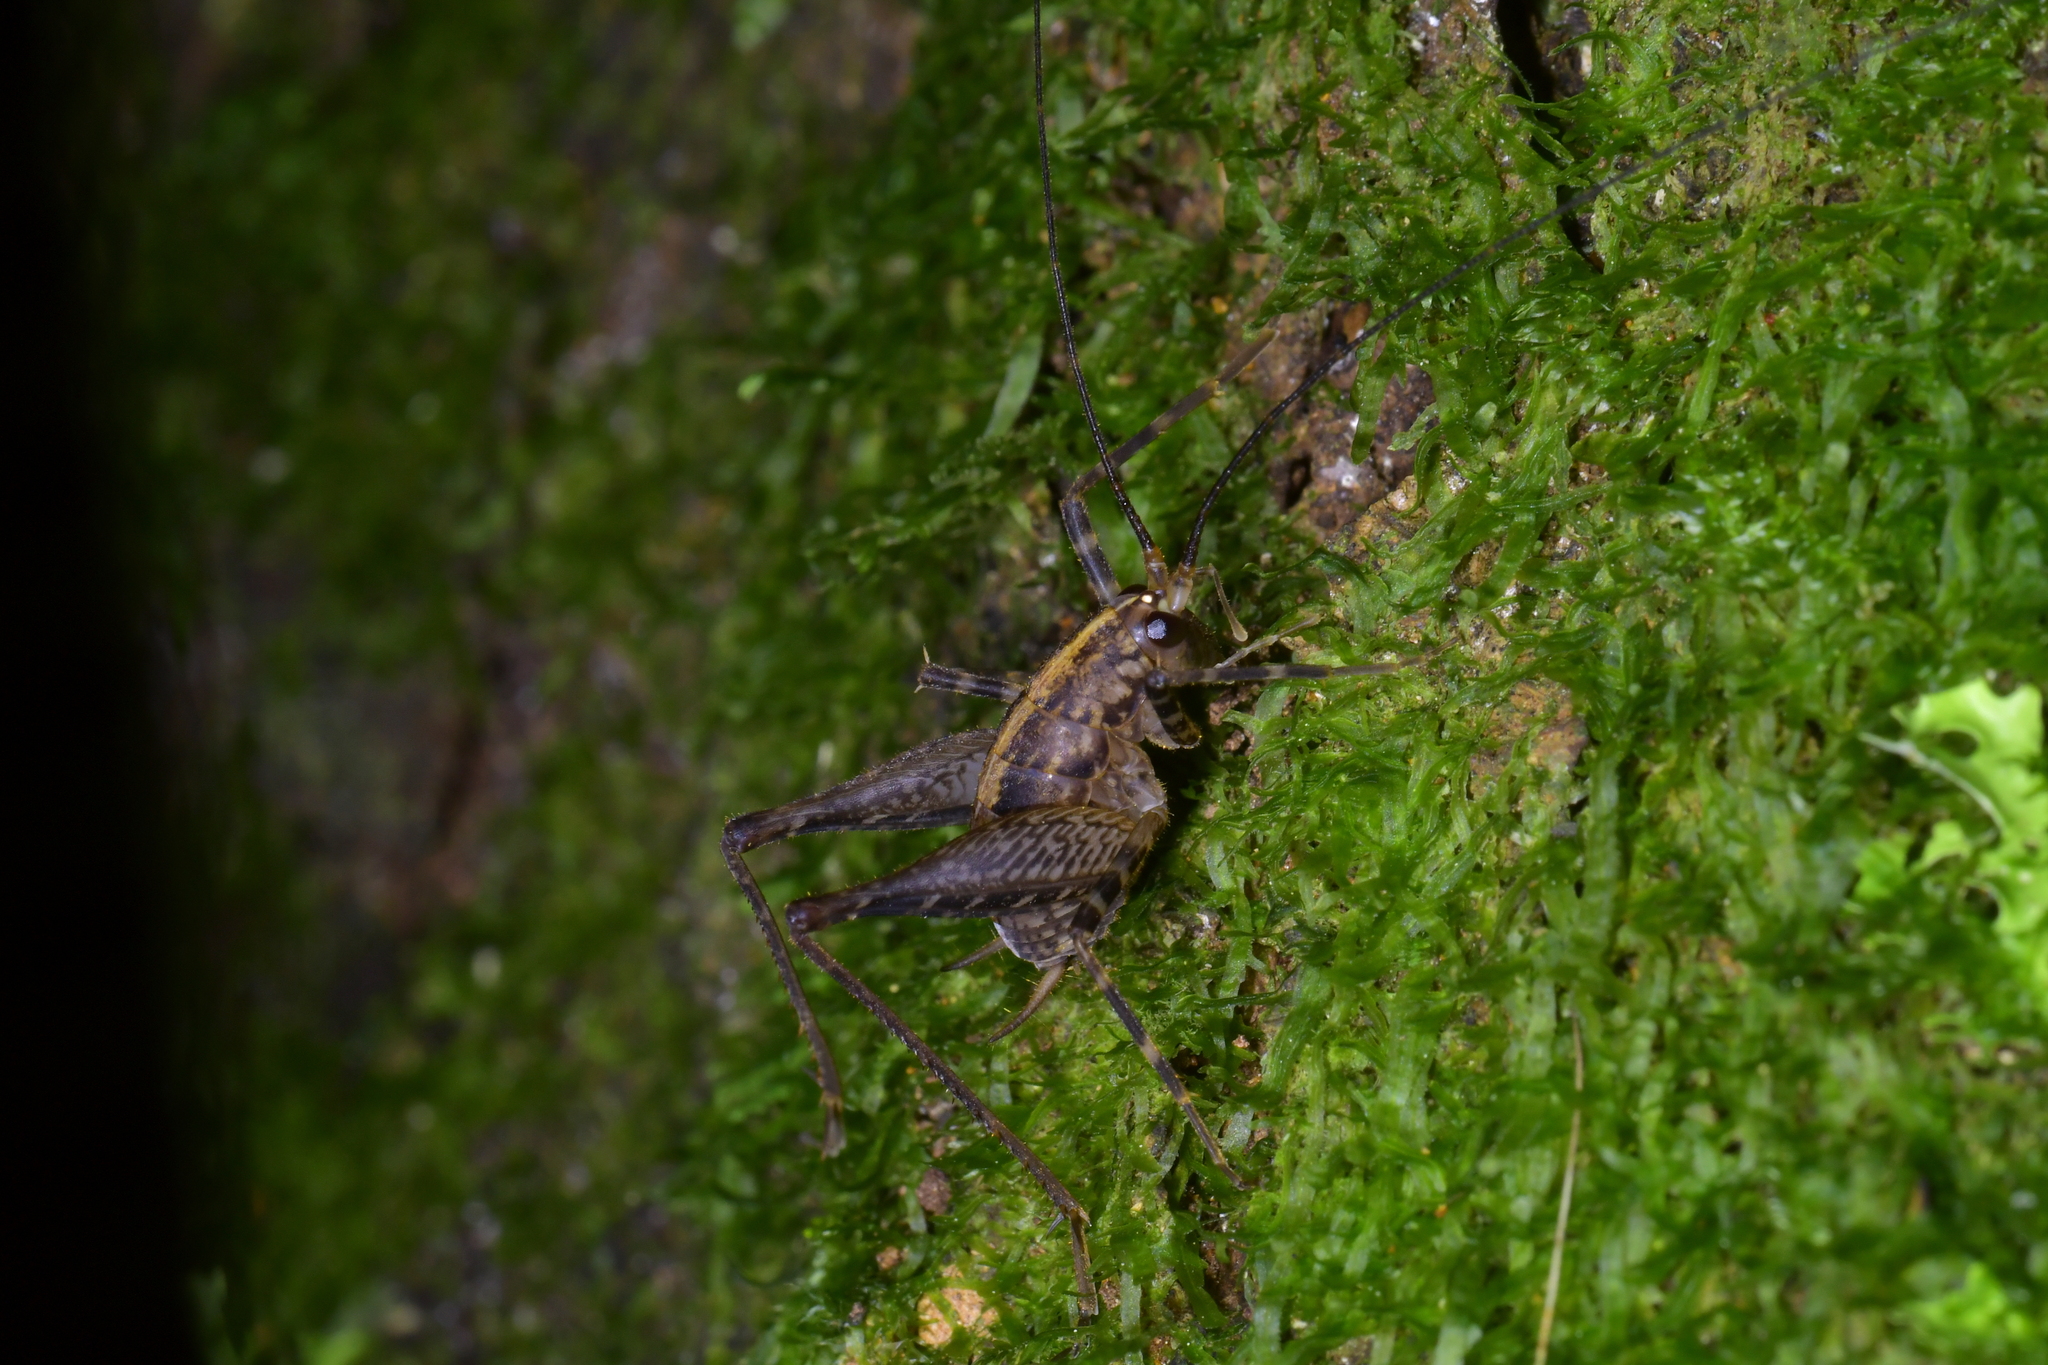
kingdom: Animalia
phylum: Arthropoda
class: Insecta
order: Orthoptera
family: Rhaphidophoridae
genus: Pleioplectron
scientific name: Pleioplectron hudsoni
